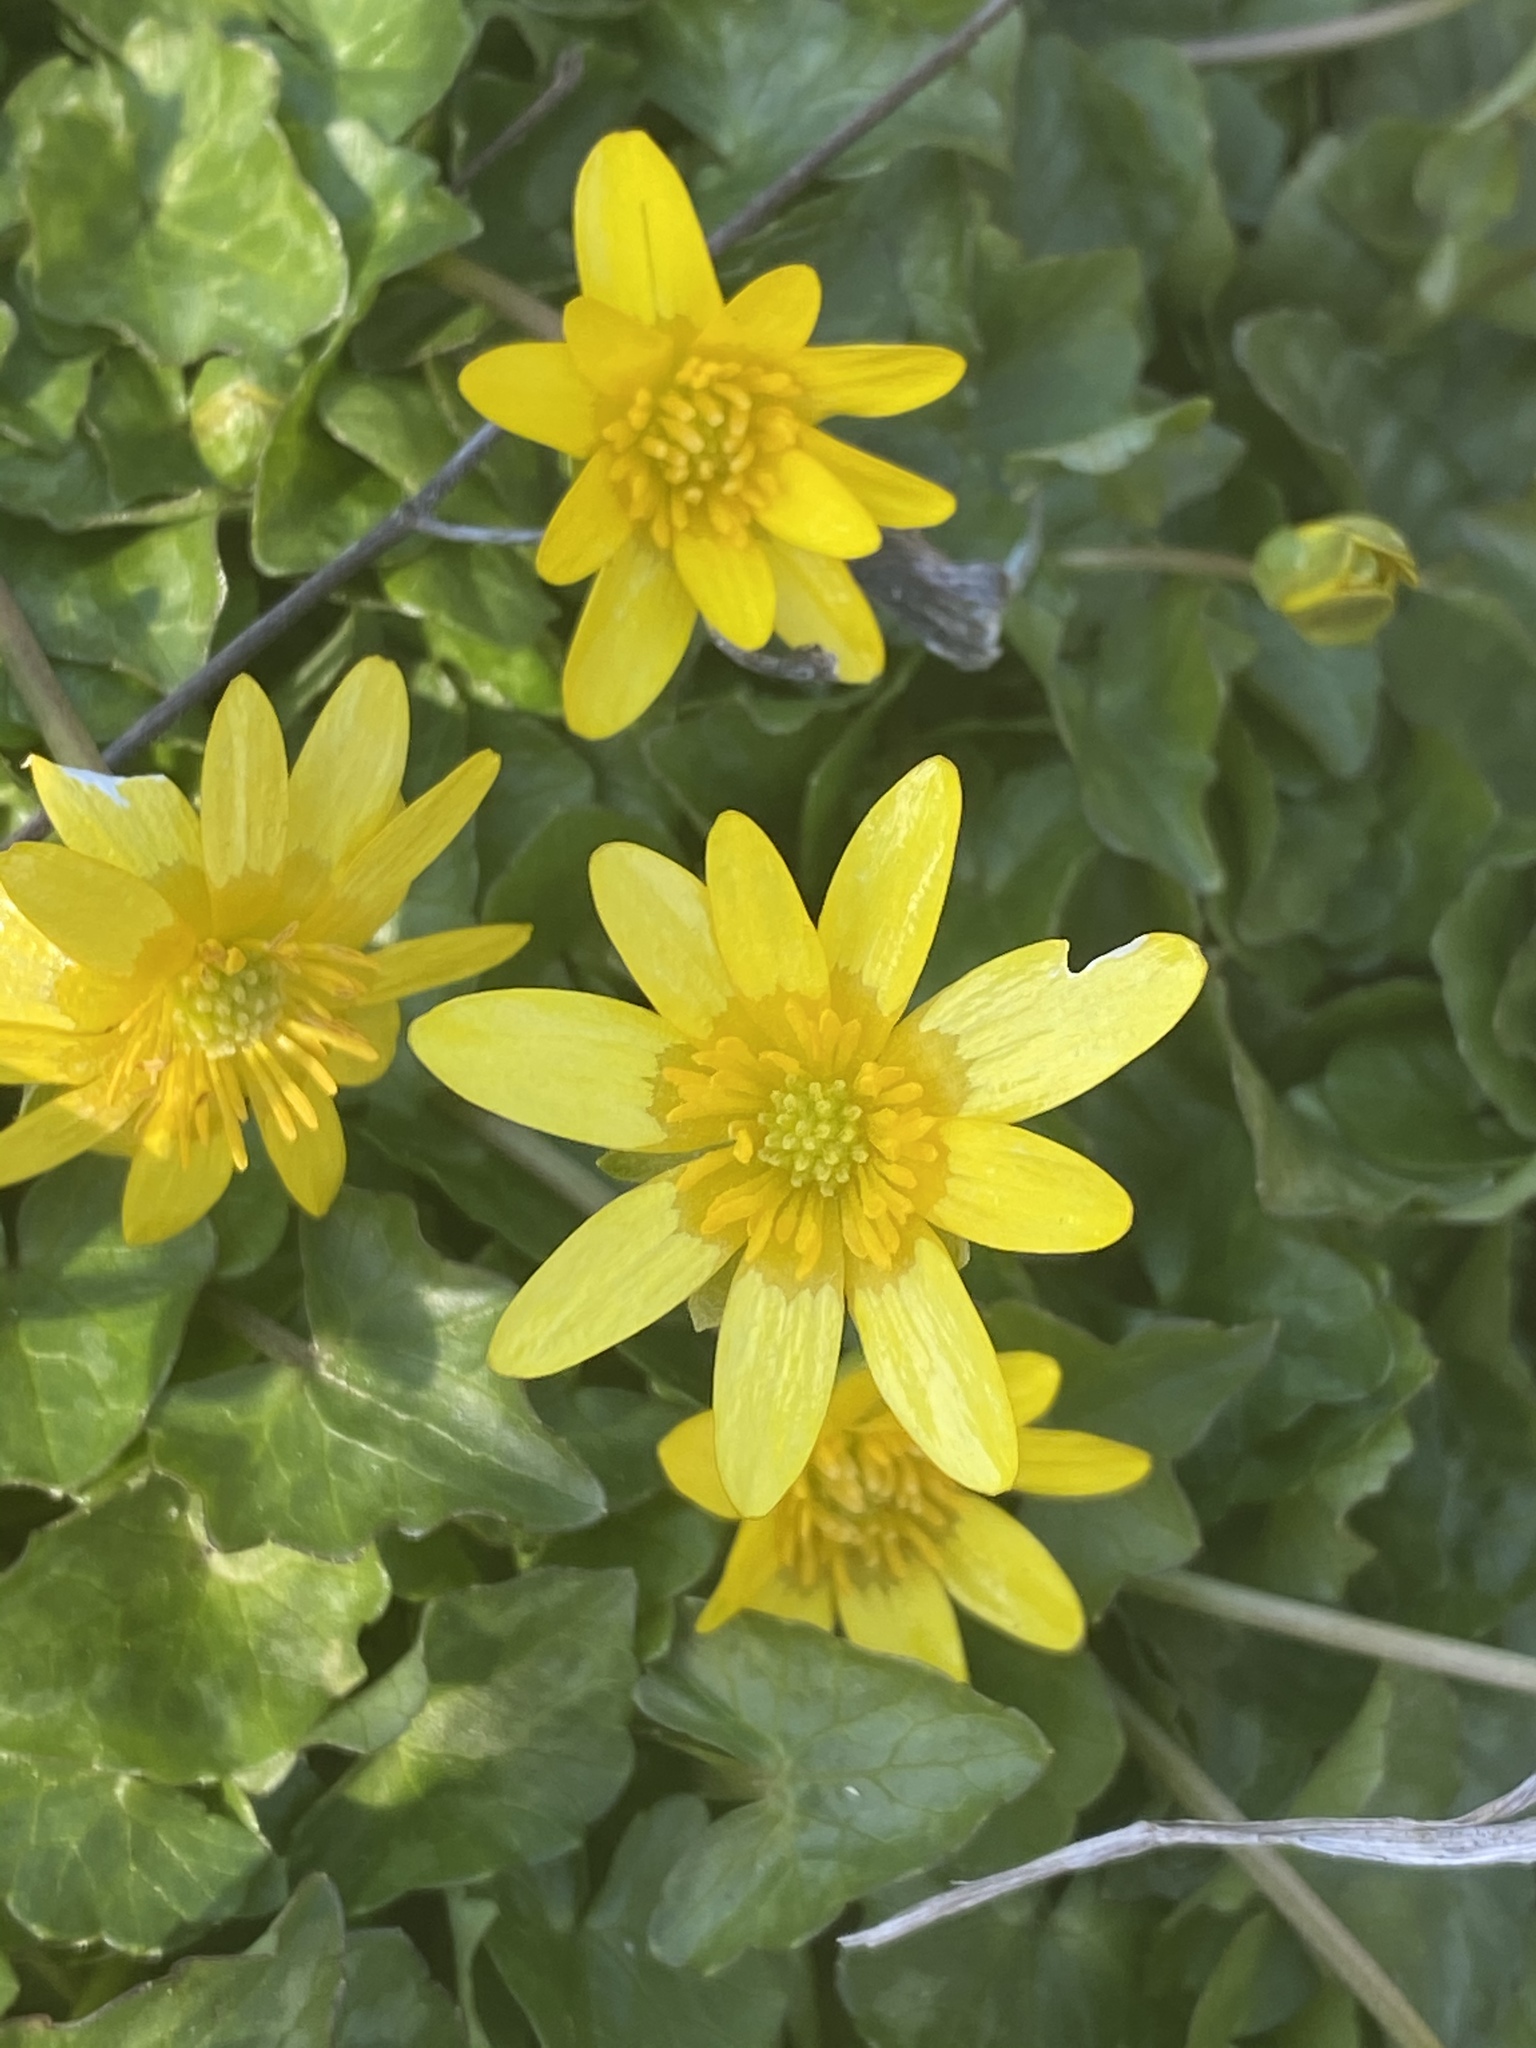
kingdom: Plantae
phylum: Tracheophyta
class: Magnoliopsida
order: Ranunculales
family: Ranunculaceae
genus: Ficaria
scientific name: Ficaria verna
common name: Lesser celandine
